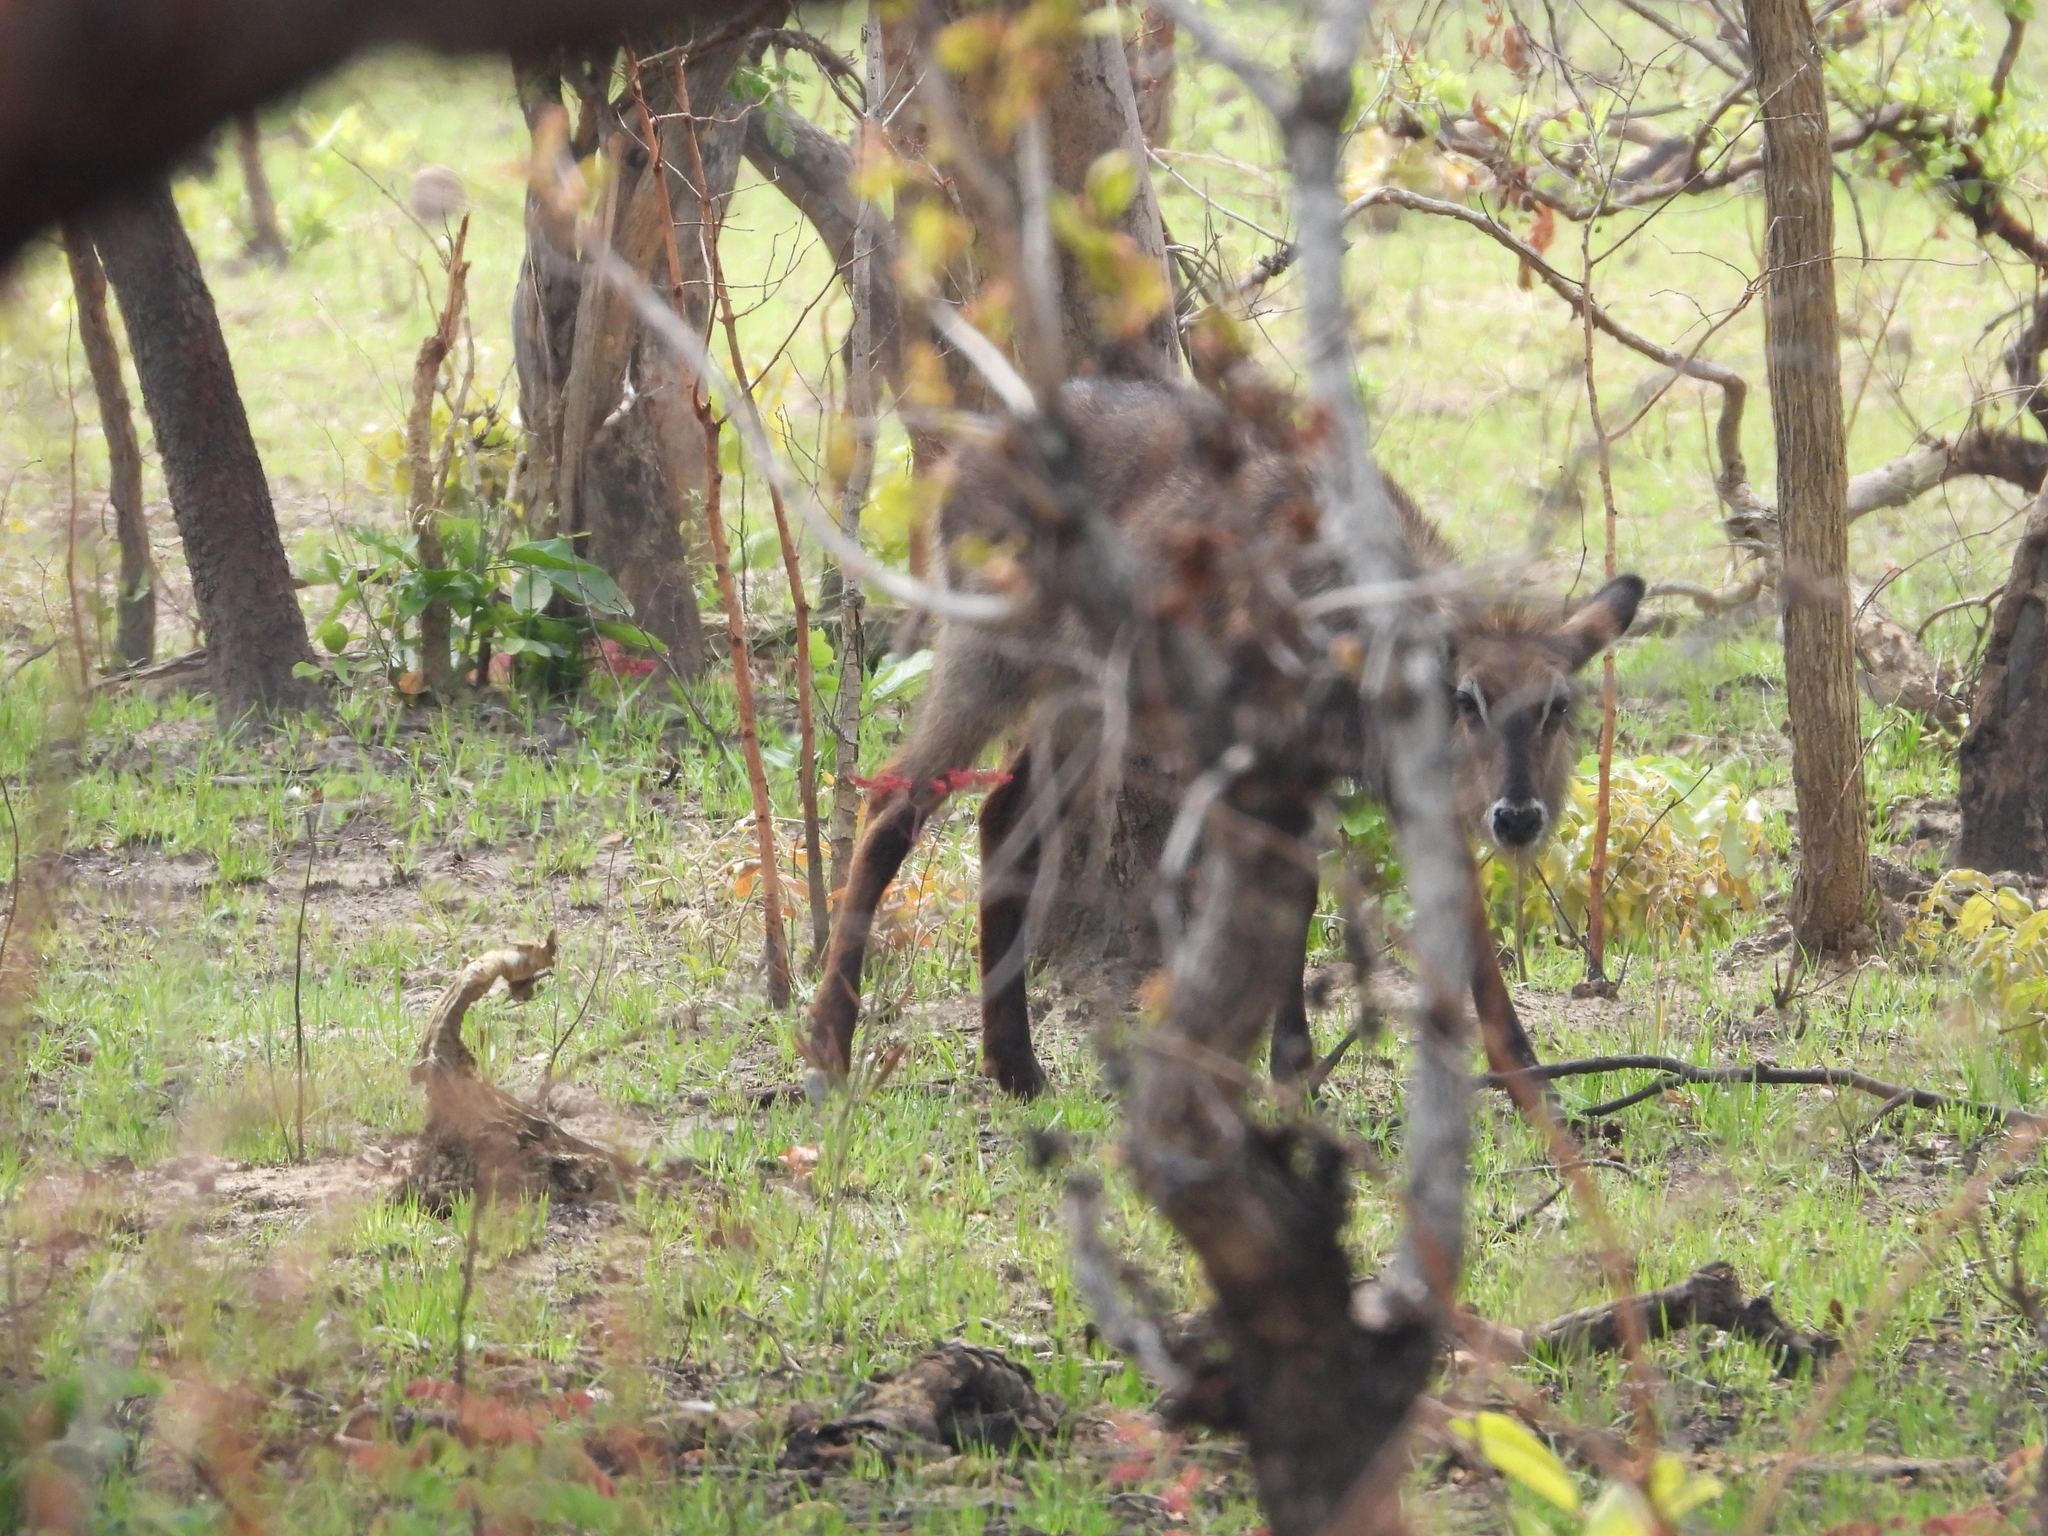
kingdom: Animalia
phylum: Chordata
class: Mammalia
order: Artiodactyla
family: Bovidae
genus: Kobus
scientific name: Kobus ellipsiprymnus
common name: Waterbuck
